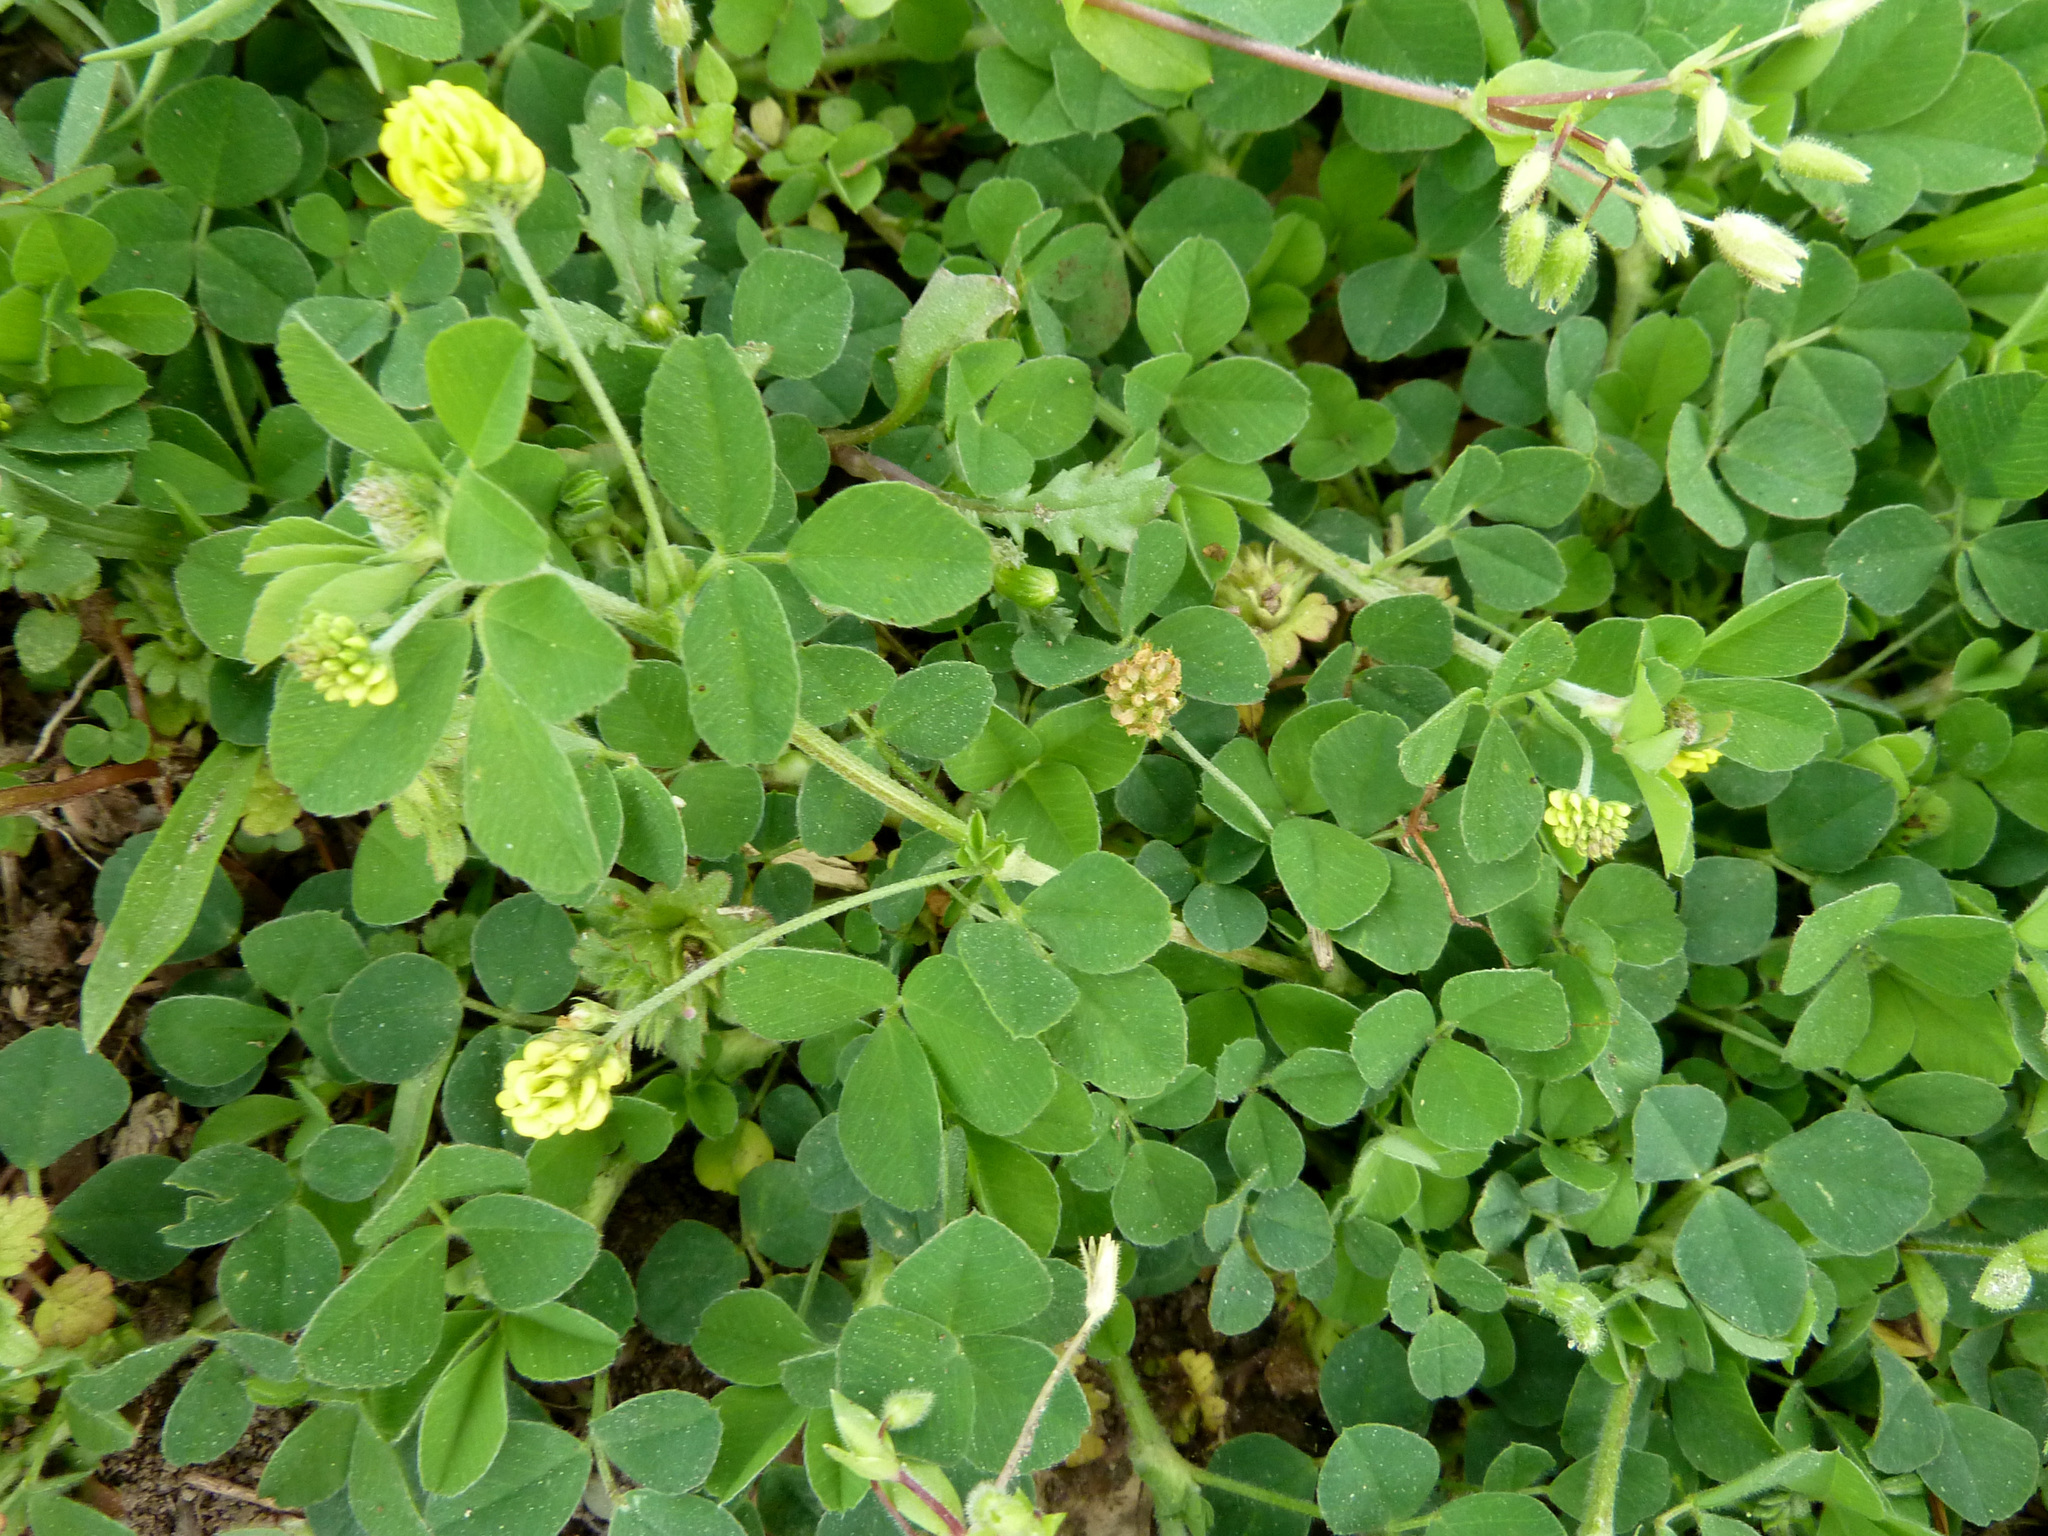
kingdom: Plantae
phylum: Tracheophyta
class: Magnoliopsida
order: Fabales
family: Fabaceae
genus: Medicago
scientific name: Medicago lupulina
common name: Black medick
